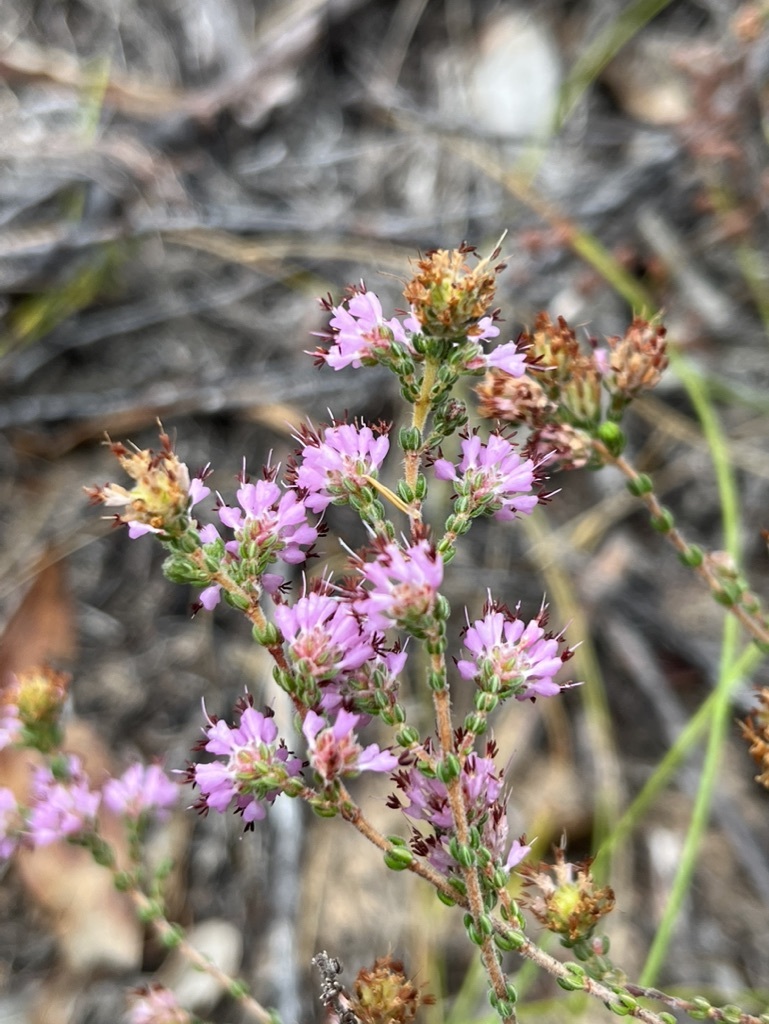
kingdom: Plantae
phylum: Tracheophyta
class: Magnoliopsida
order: Ericales
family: Ericaceae
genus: Erica
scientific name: Erica ericoides
